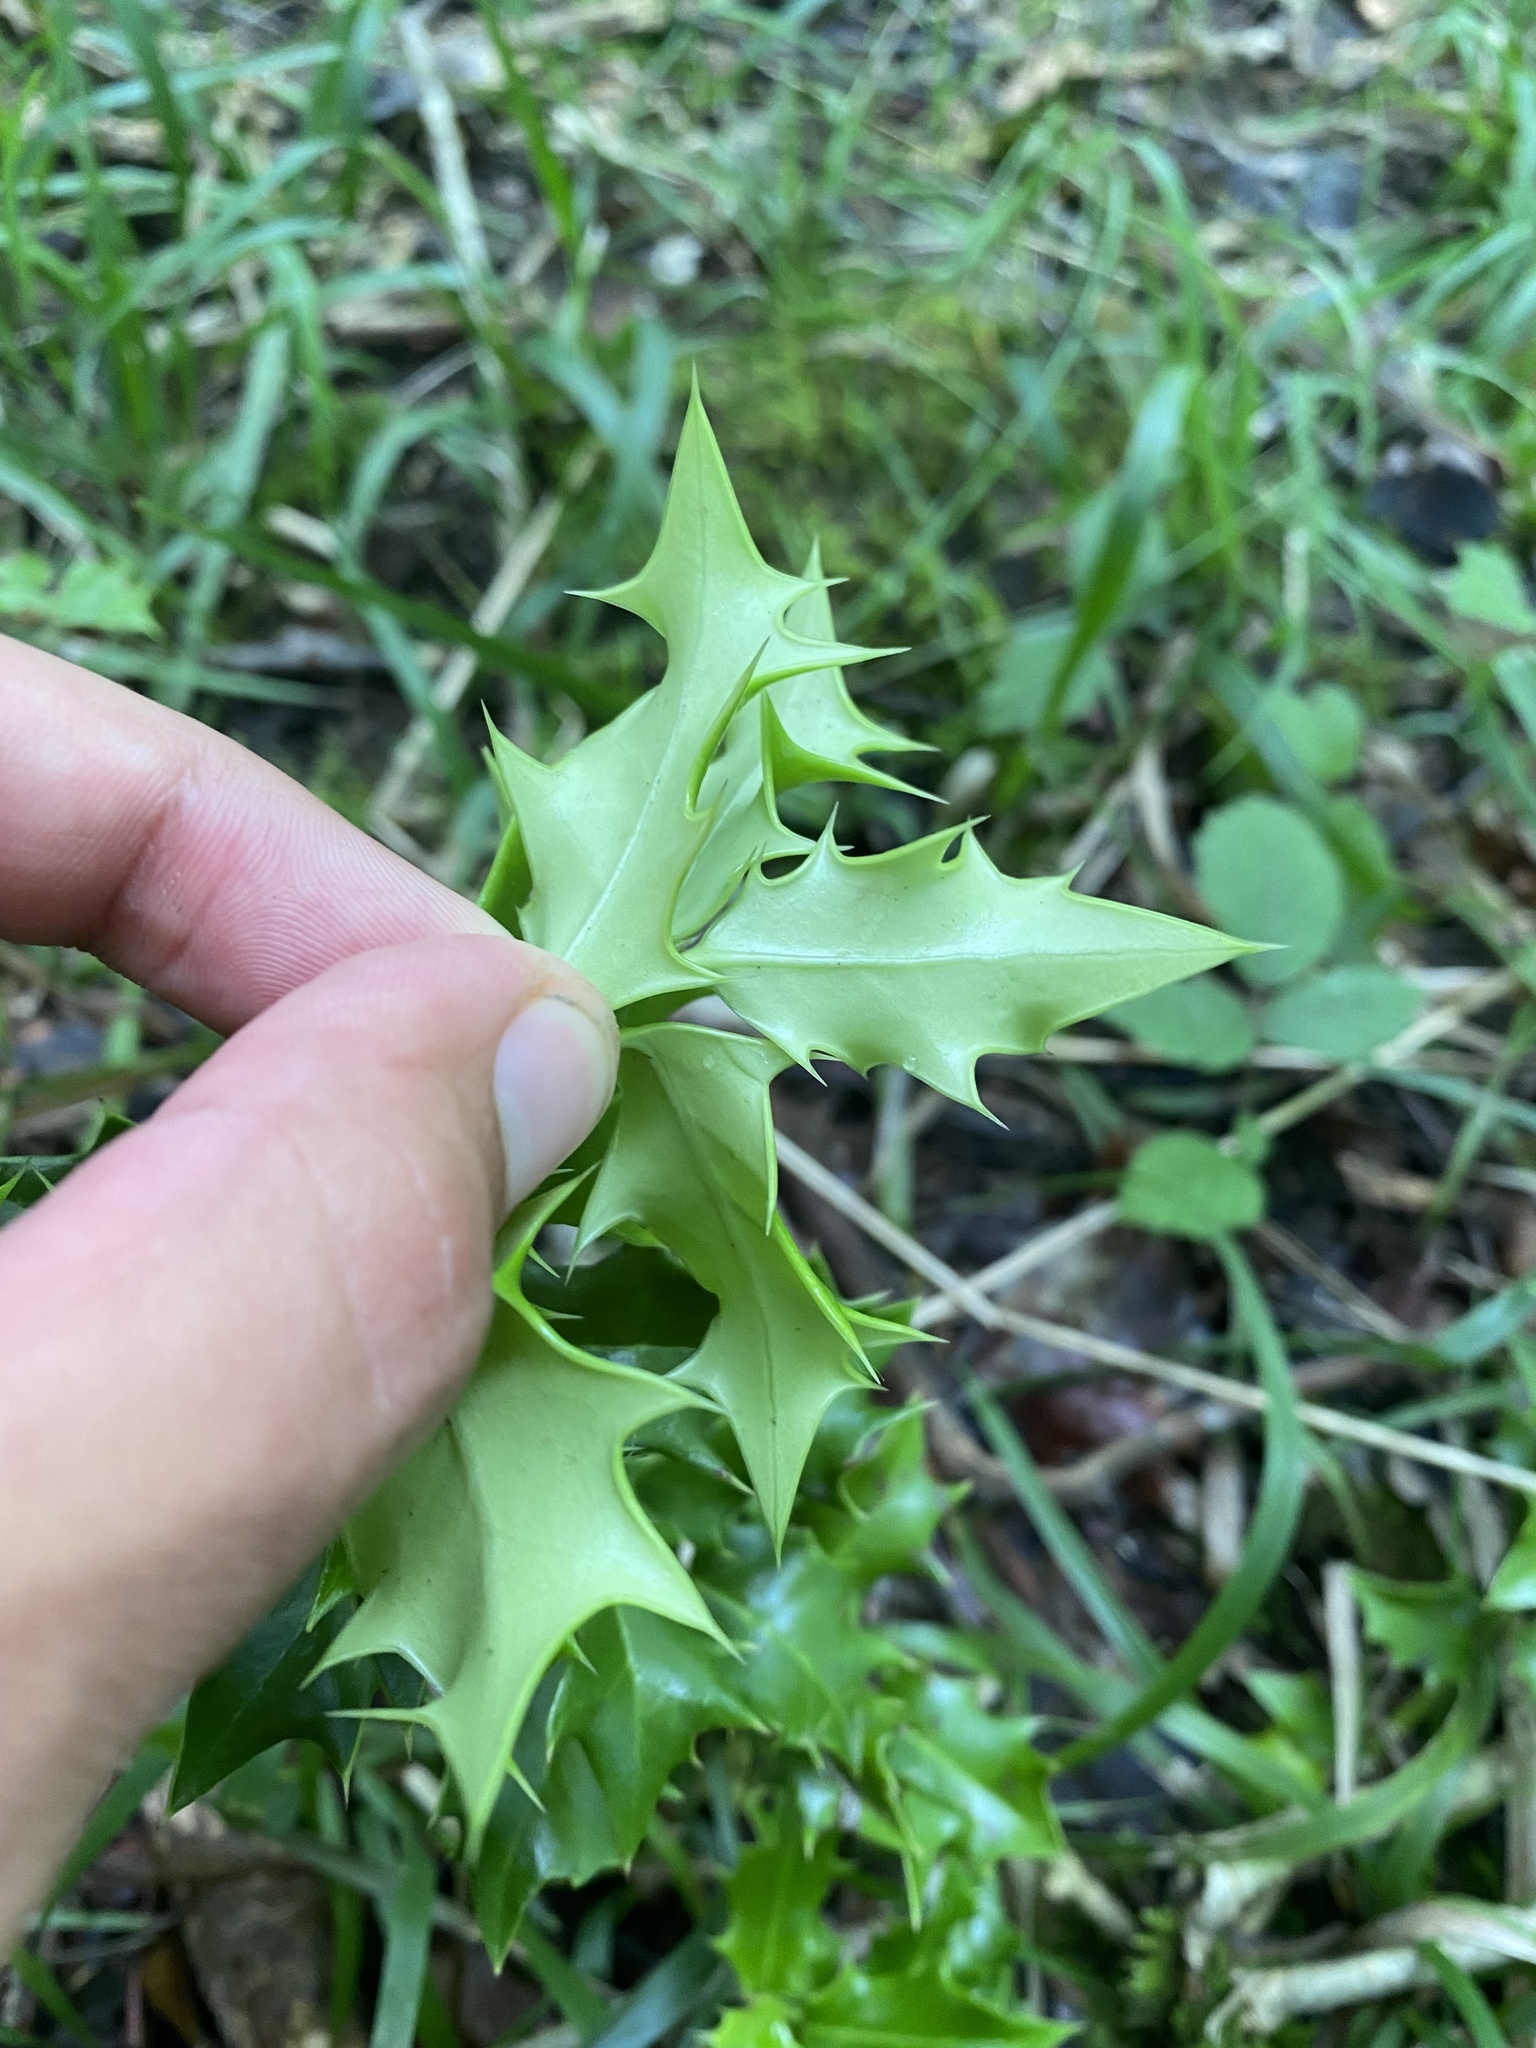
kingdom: Plantae
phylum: Tracheophyta
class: Magnoliopsida
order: Aquifoliales
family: Aquifoliaceae
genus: Ilex
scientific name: Ilex colchica
